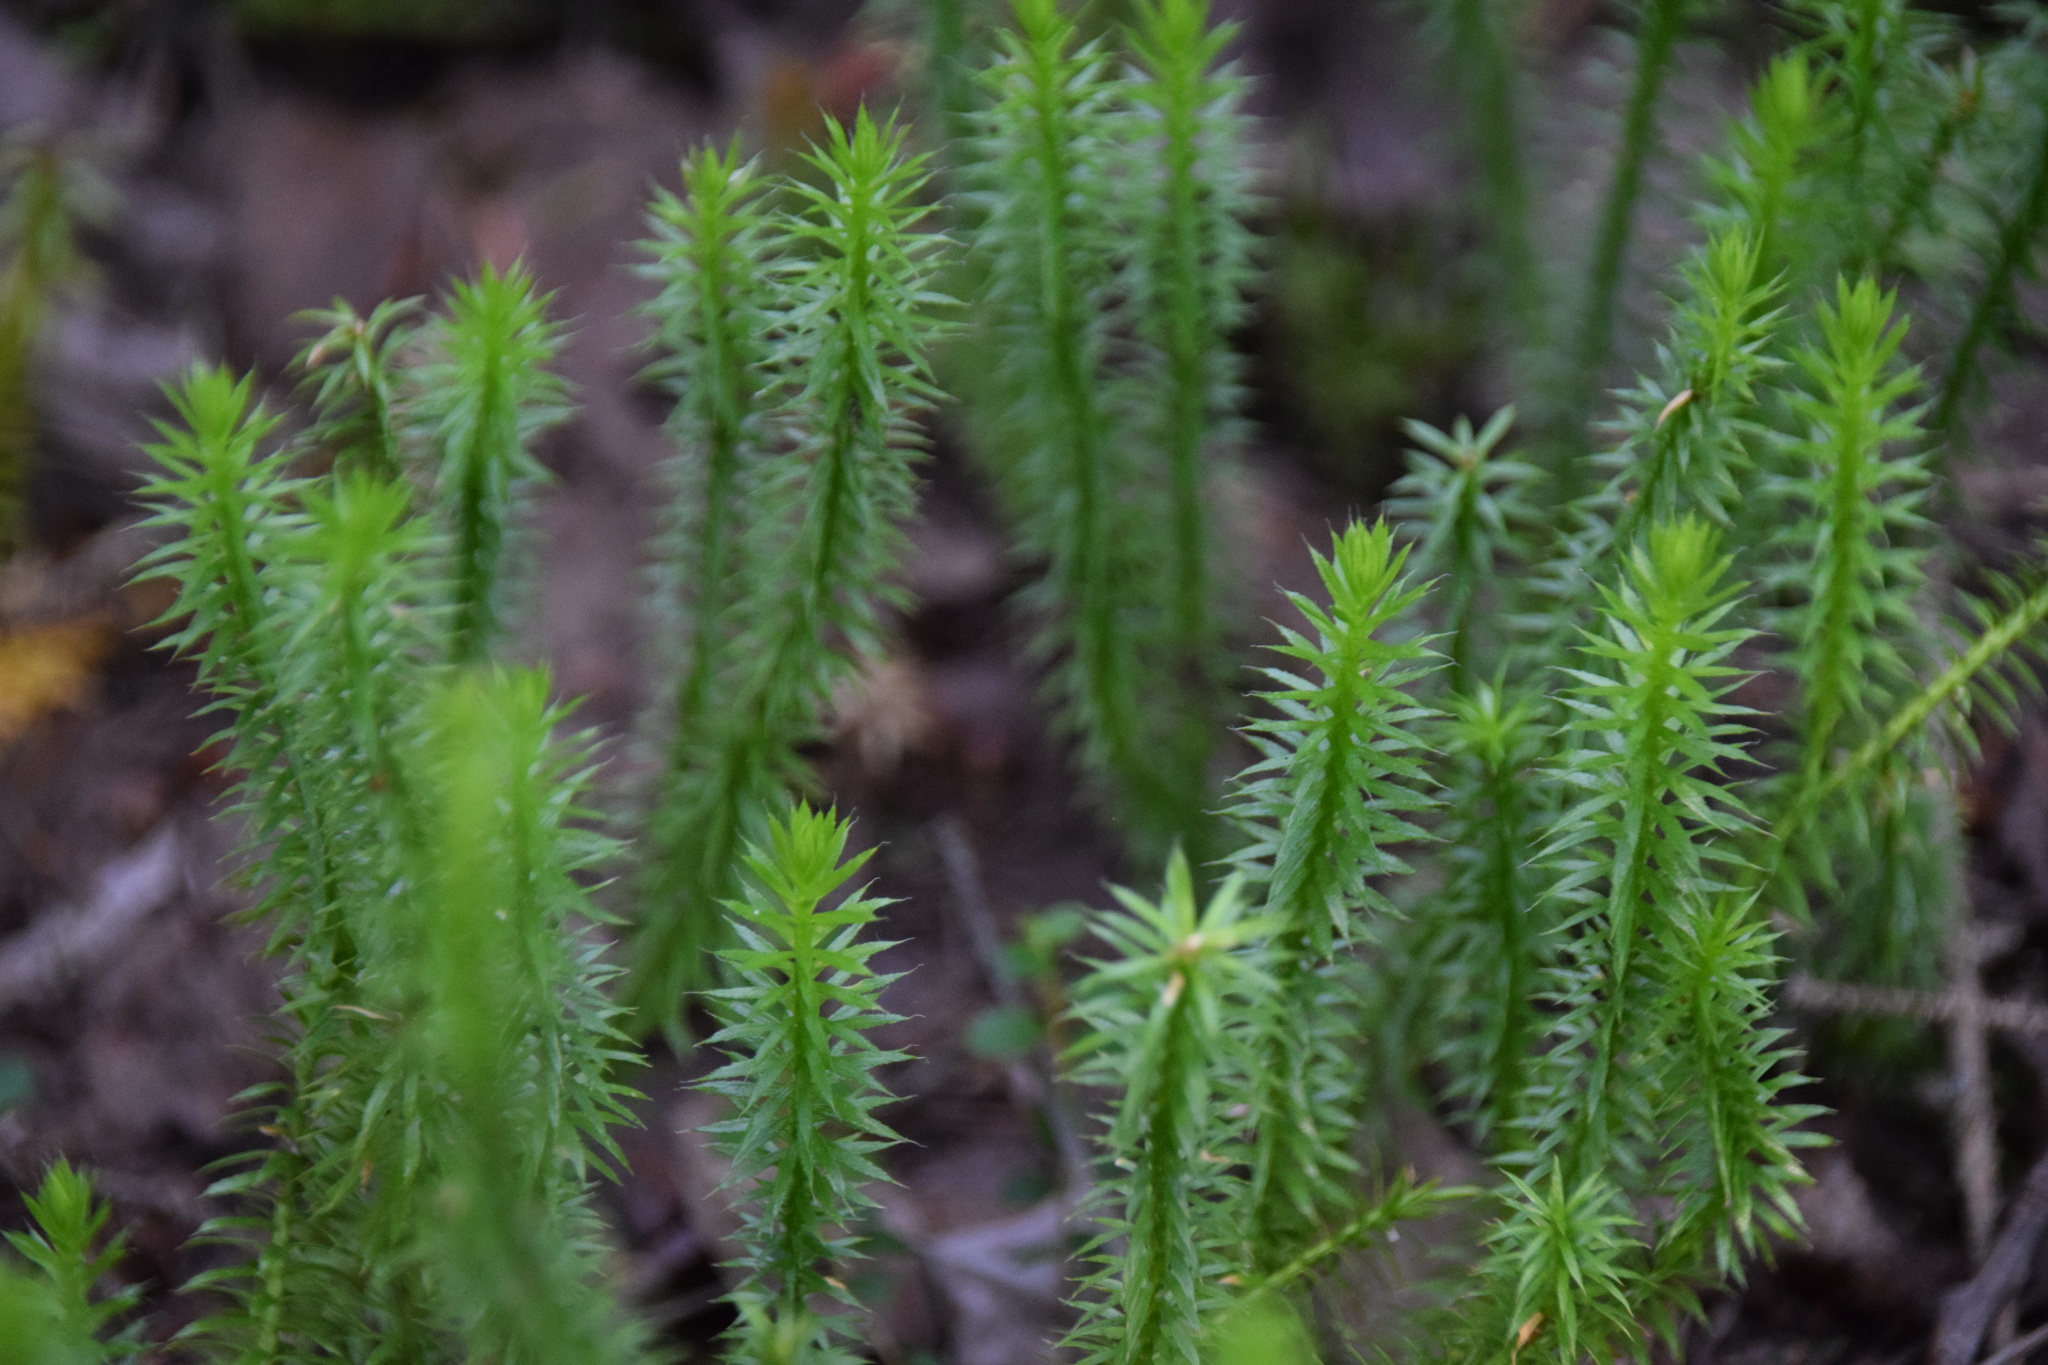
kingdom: Plantae
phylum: Tracheophyta
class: Lycopodiopsida
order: Lycopodiales
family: Lycopodiaceae
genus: Spinulum
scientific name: Spinulum annotinum
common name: Interrupted club-moss
